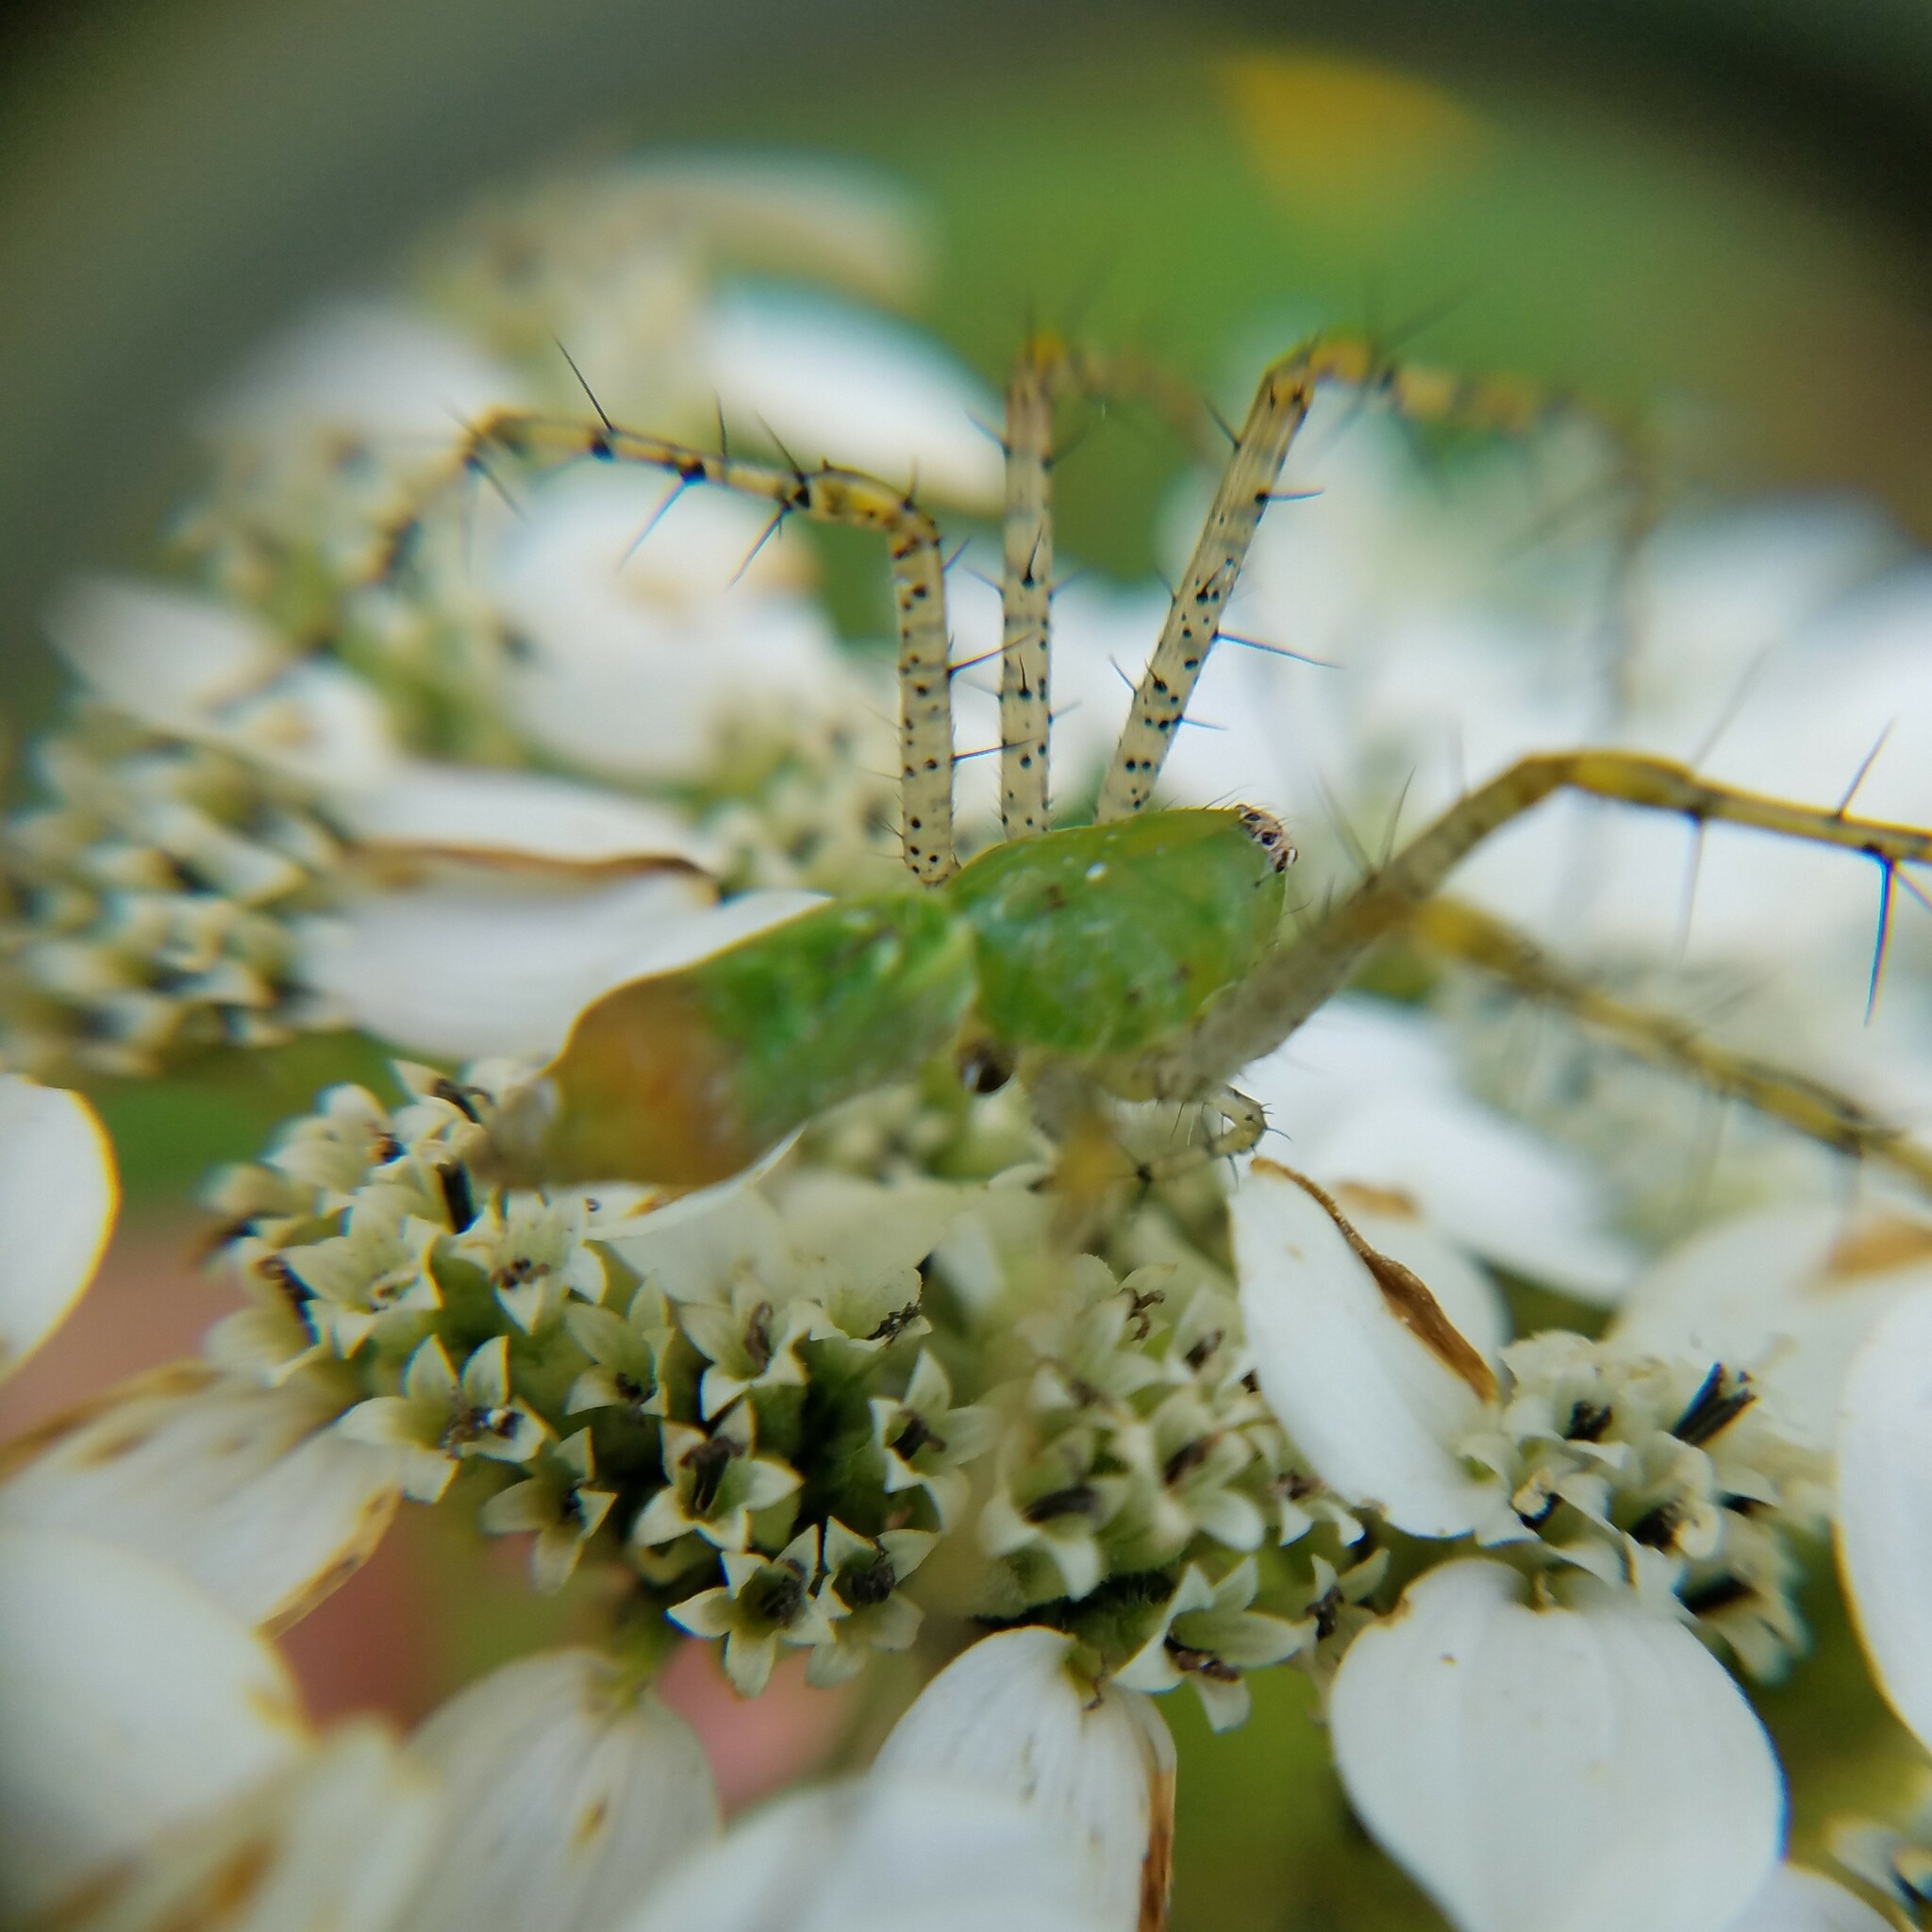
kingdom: Animalia
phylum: Arthropoda
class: Arachnida
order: Araneae
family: Oxyopidae
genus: Peucetia
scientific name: Peucetia viridans
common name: Lynx spiders
